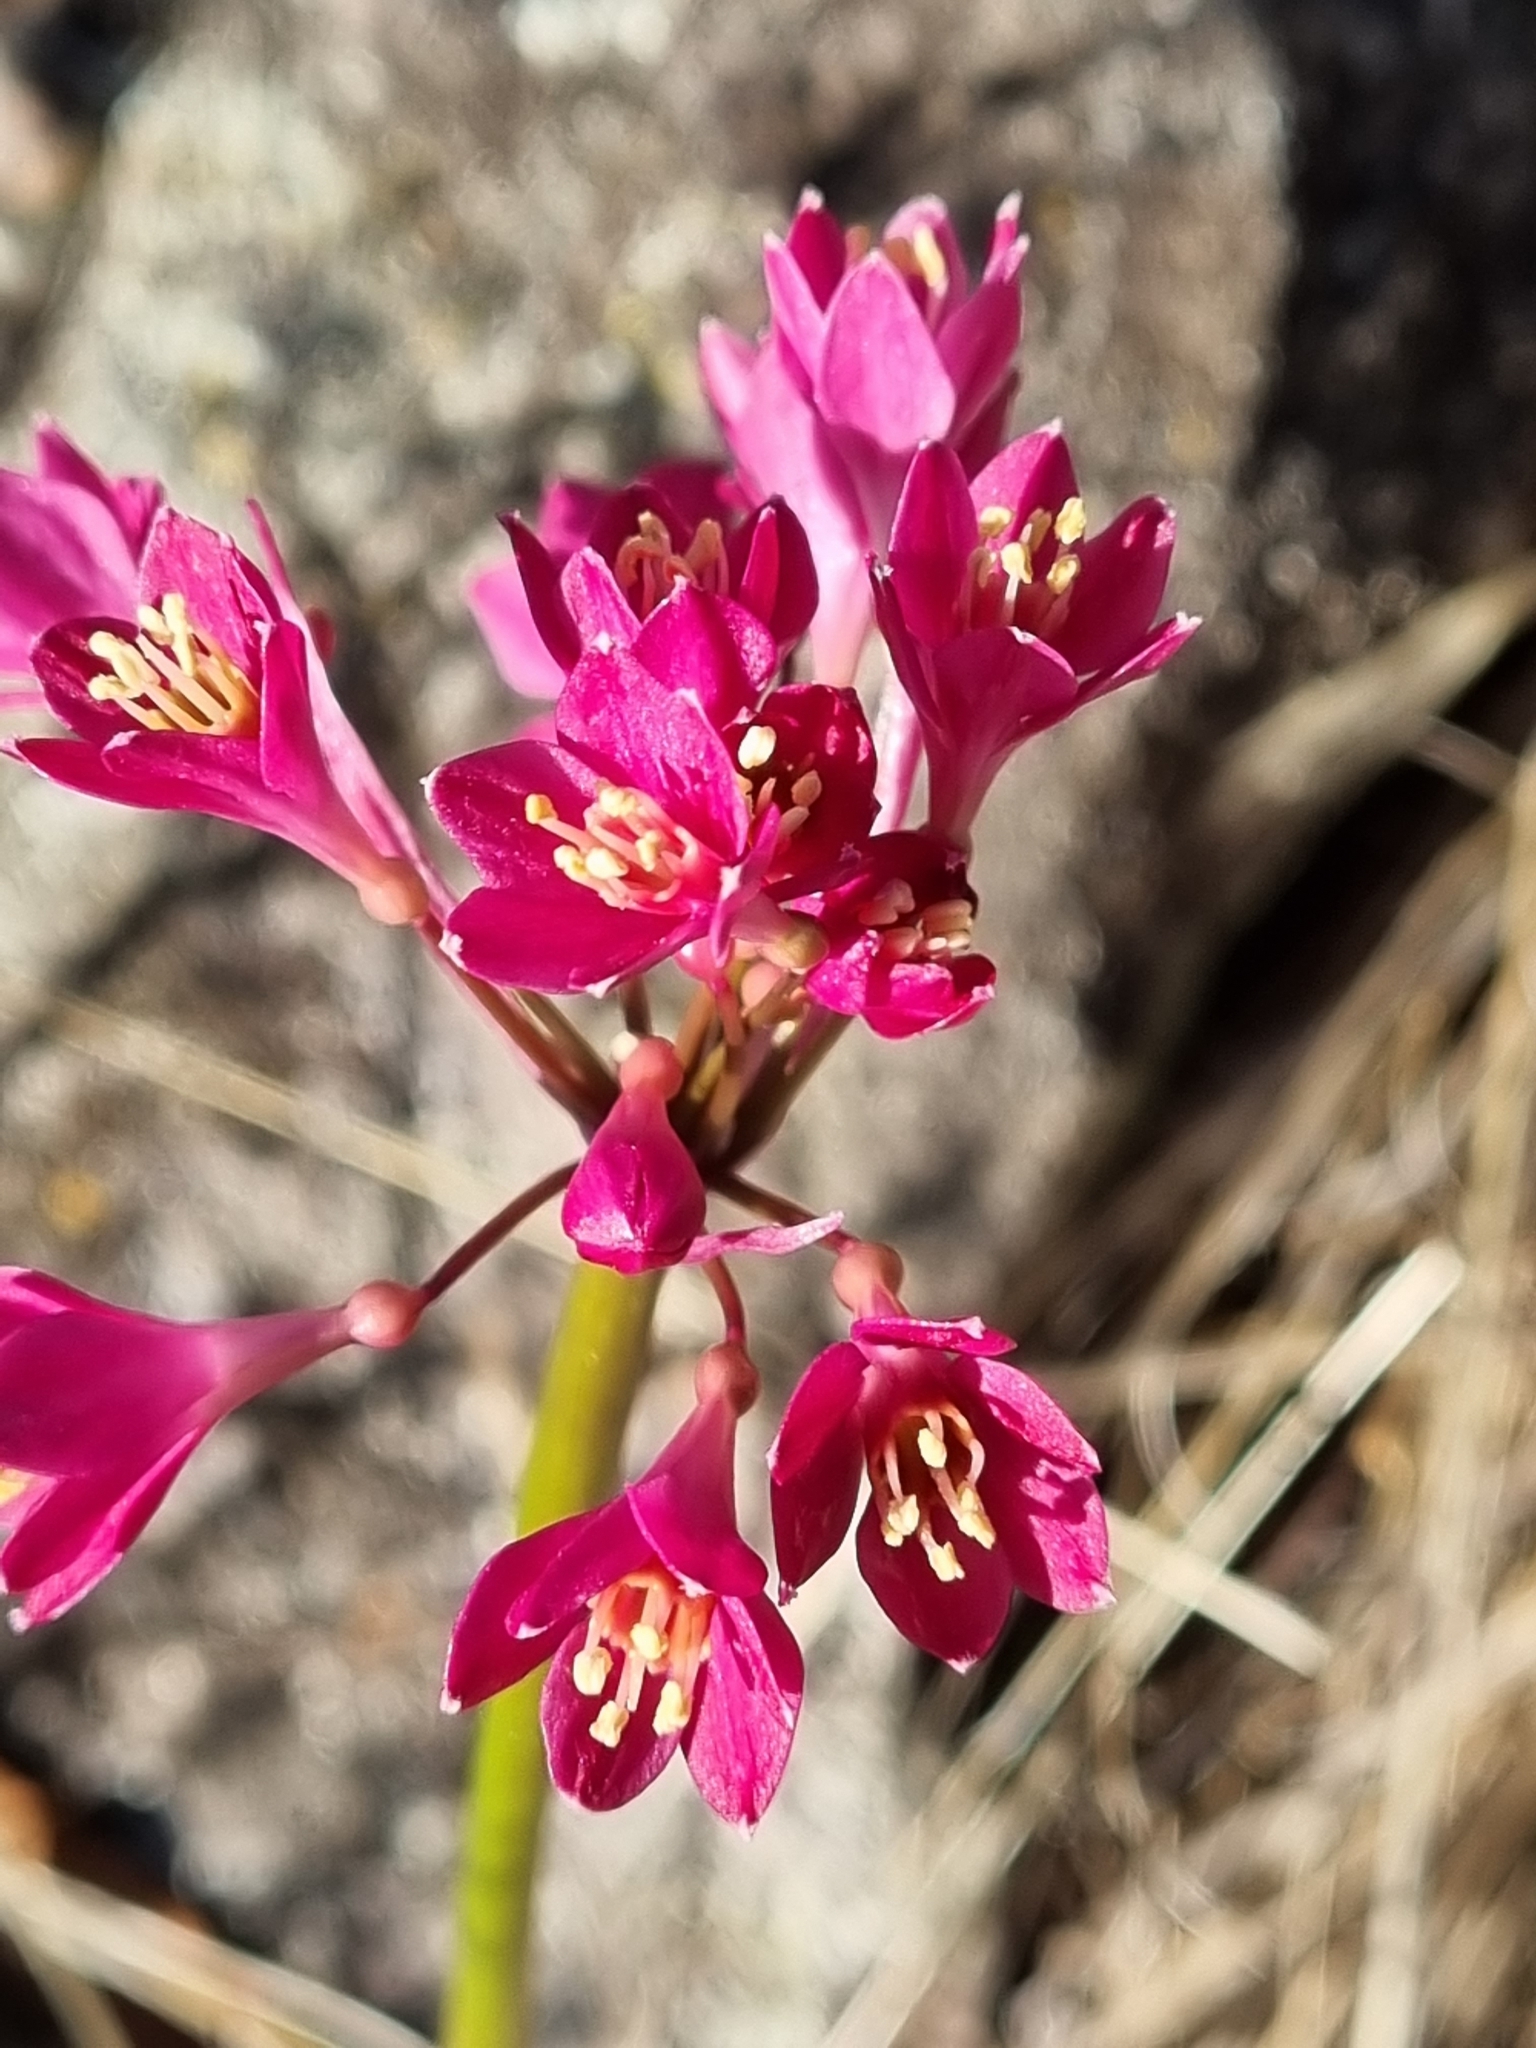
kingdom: Plantae
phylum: Tracheophyta
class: Liliopsida
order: Asparagales
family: Amaryllidaceae
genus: Calostemma
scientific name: Calostemma purpureum
